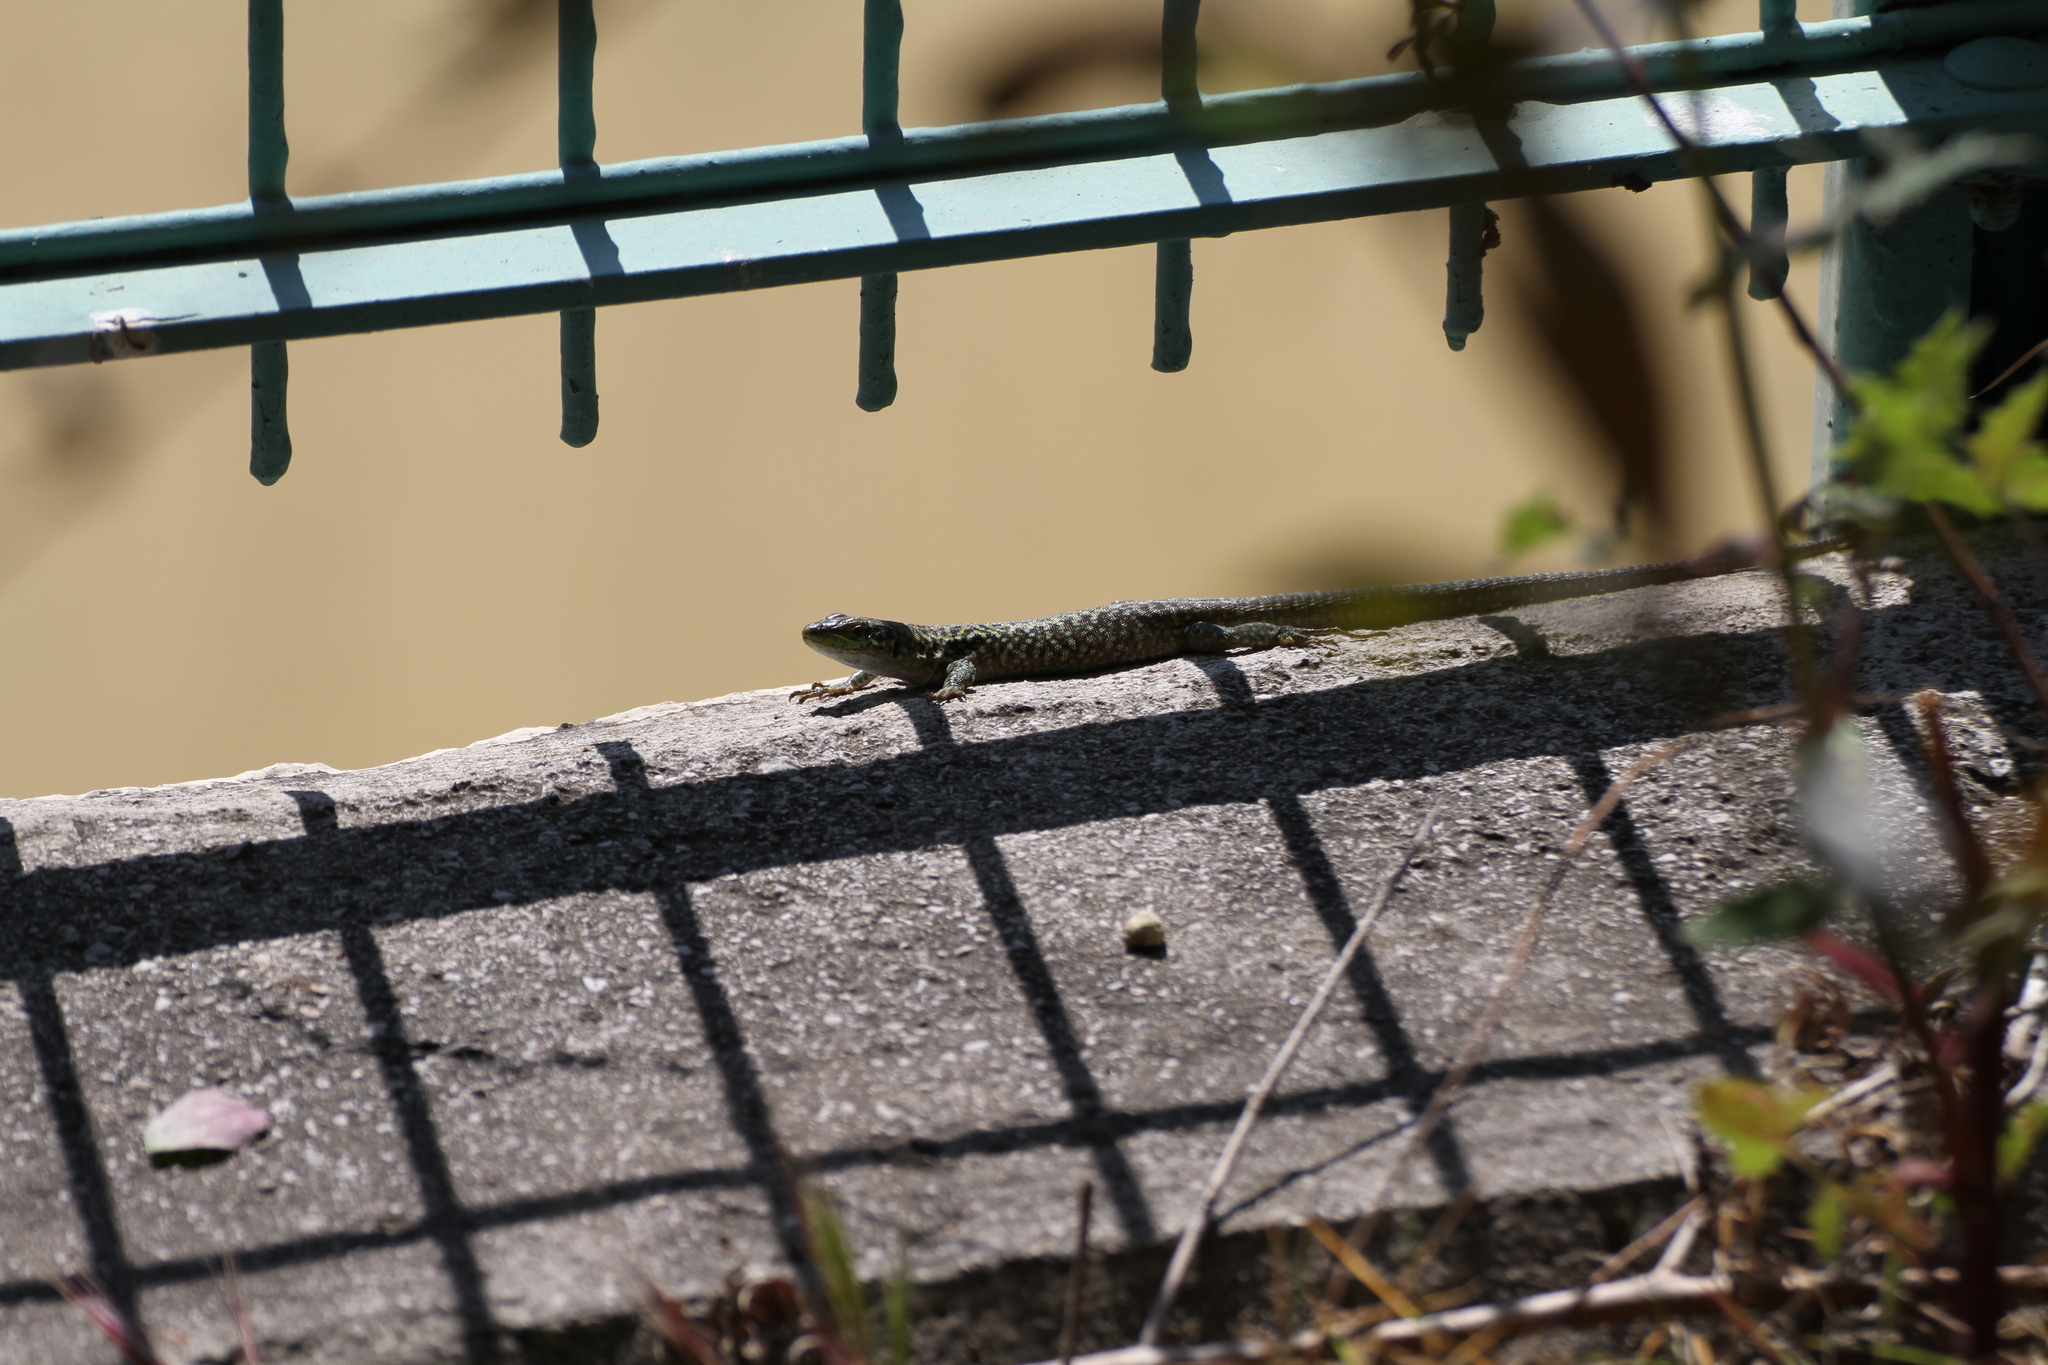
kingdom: Animalia
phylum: Chordata
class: Squamata
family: Lacertidae
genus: Podarcis
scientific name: Podarcis siculus
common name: Italian wall lizard
